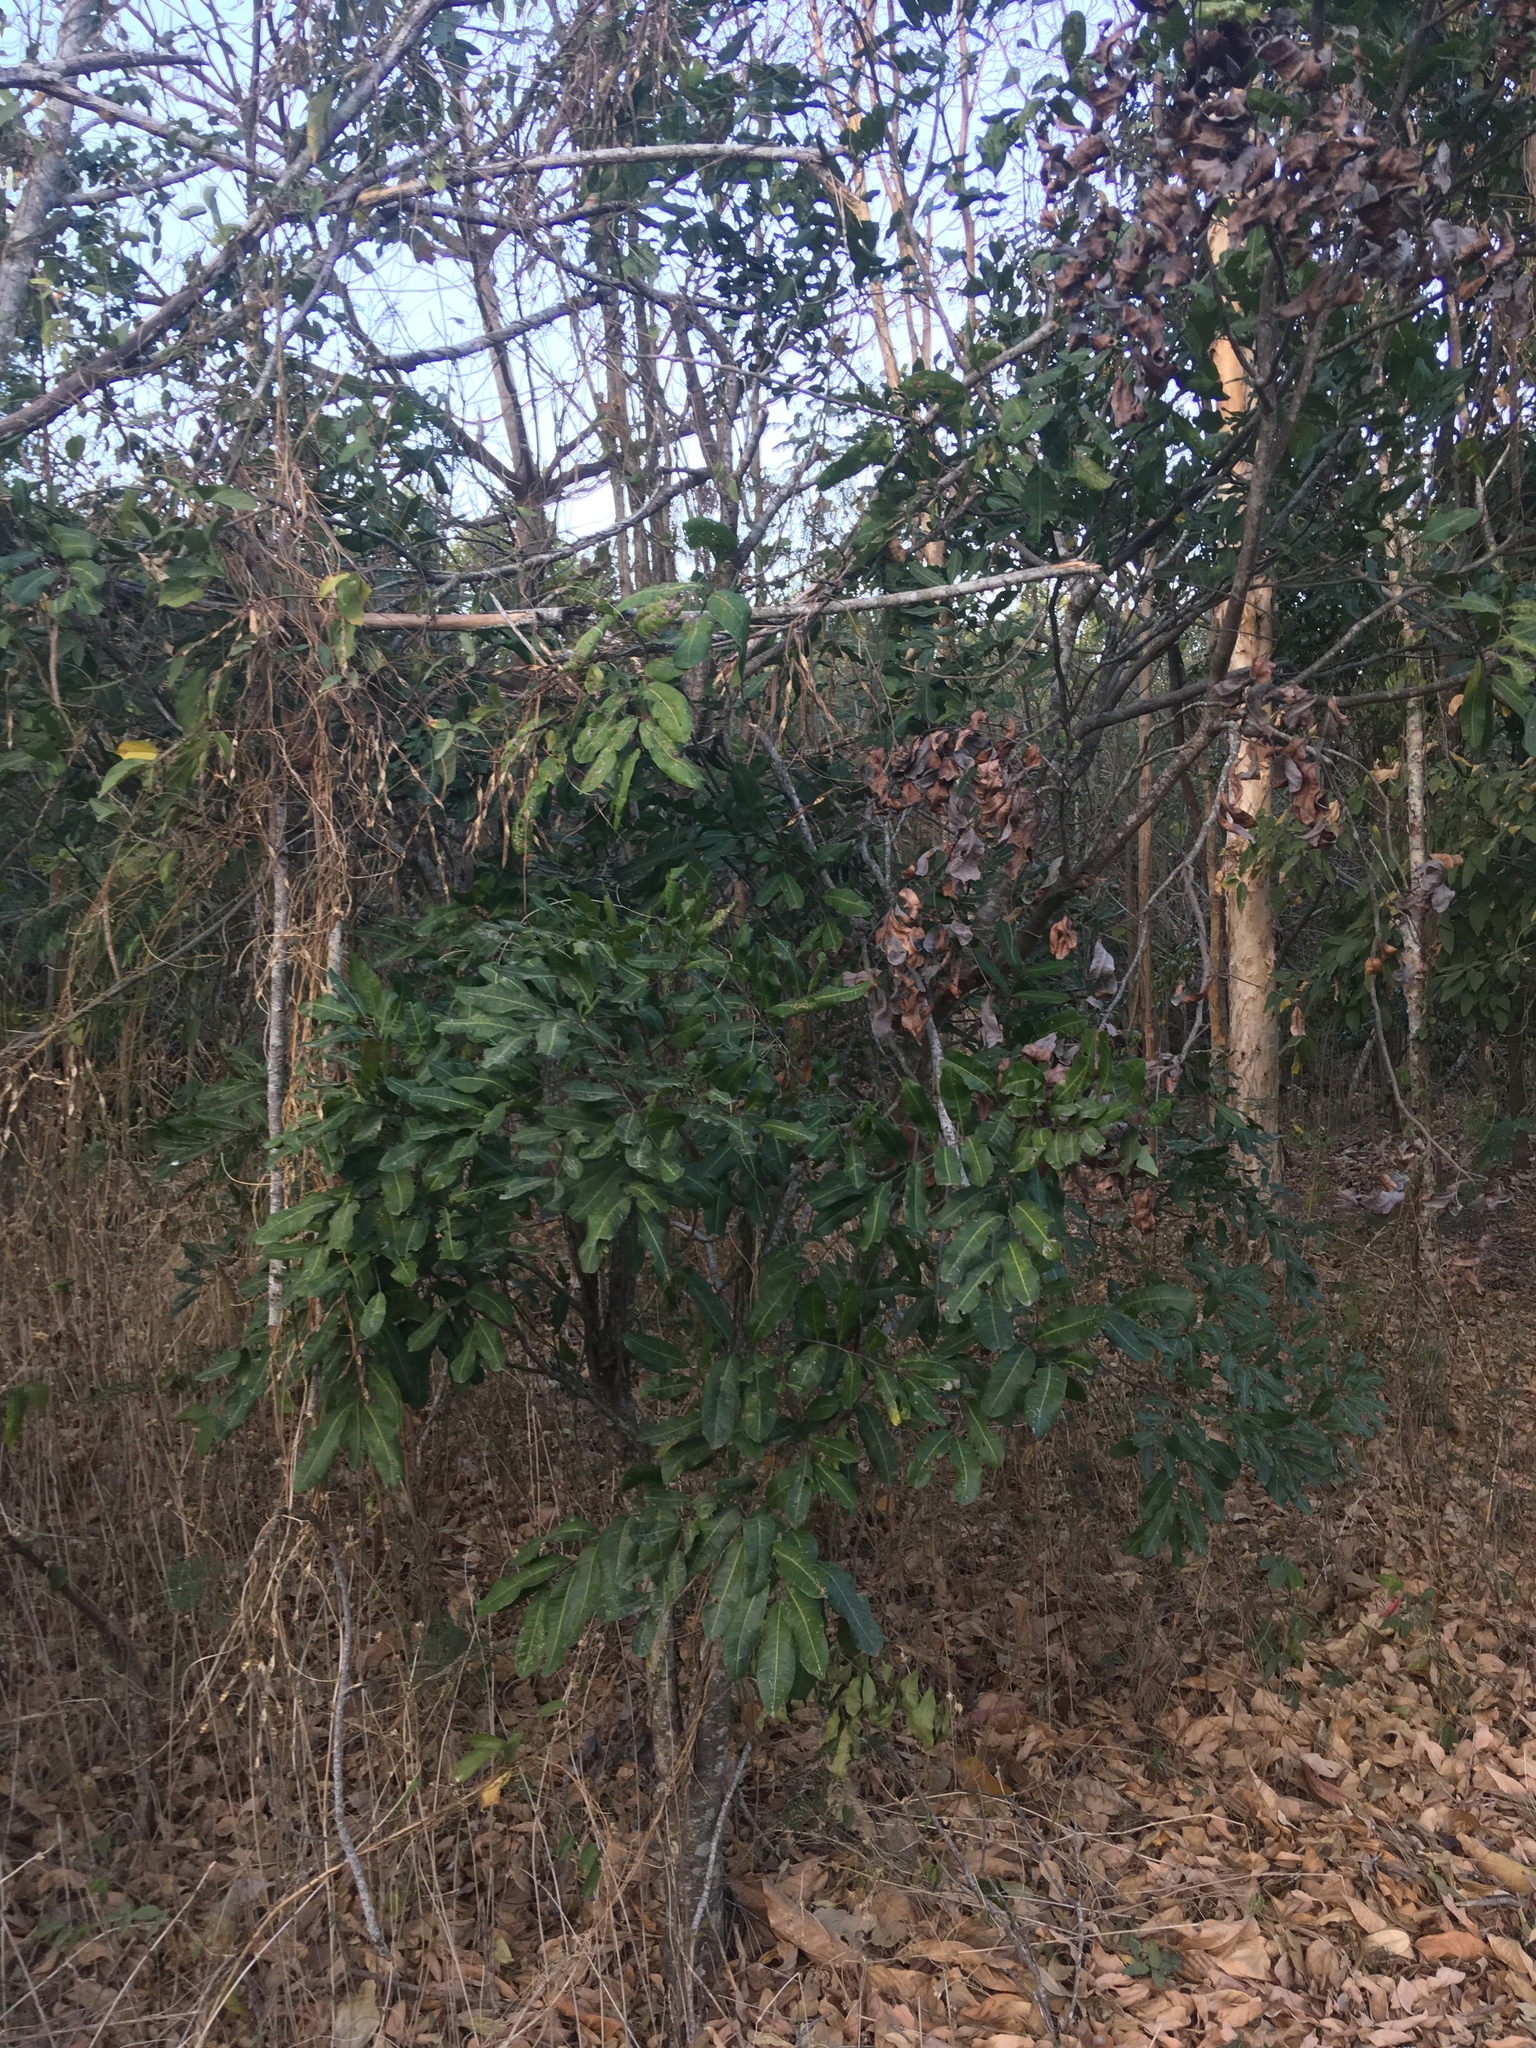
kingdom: Plantae
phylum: Tracheophyta
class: Magnoliopsida
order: Sapindales
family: Sapindaceae
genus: Cupaniopsis
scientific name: Cupaniopsis anacardioides
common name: Carrotwood
